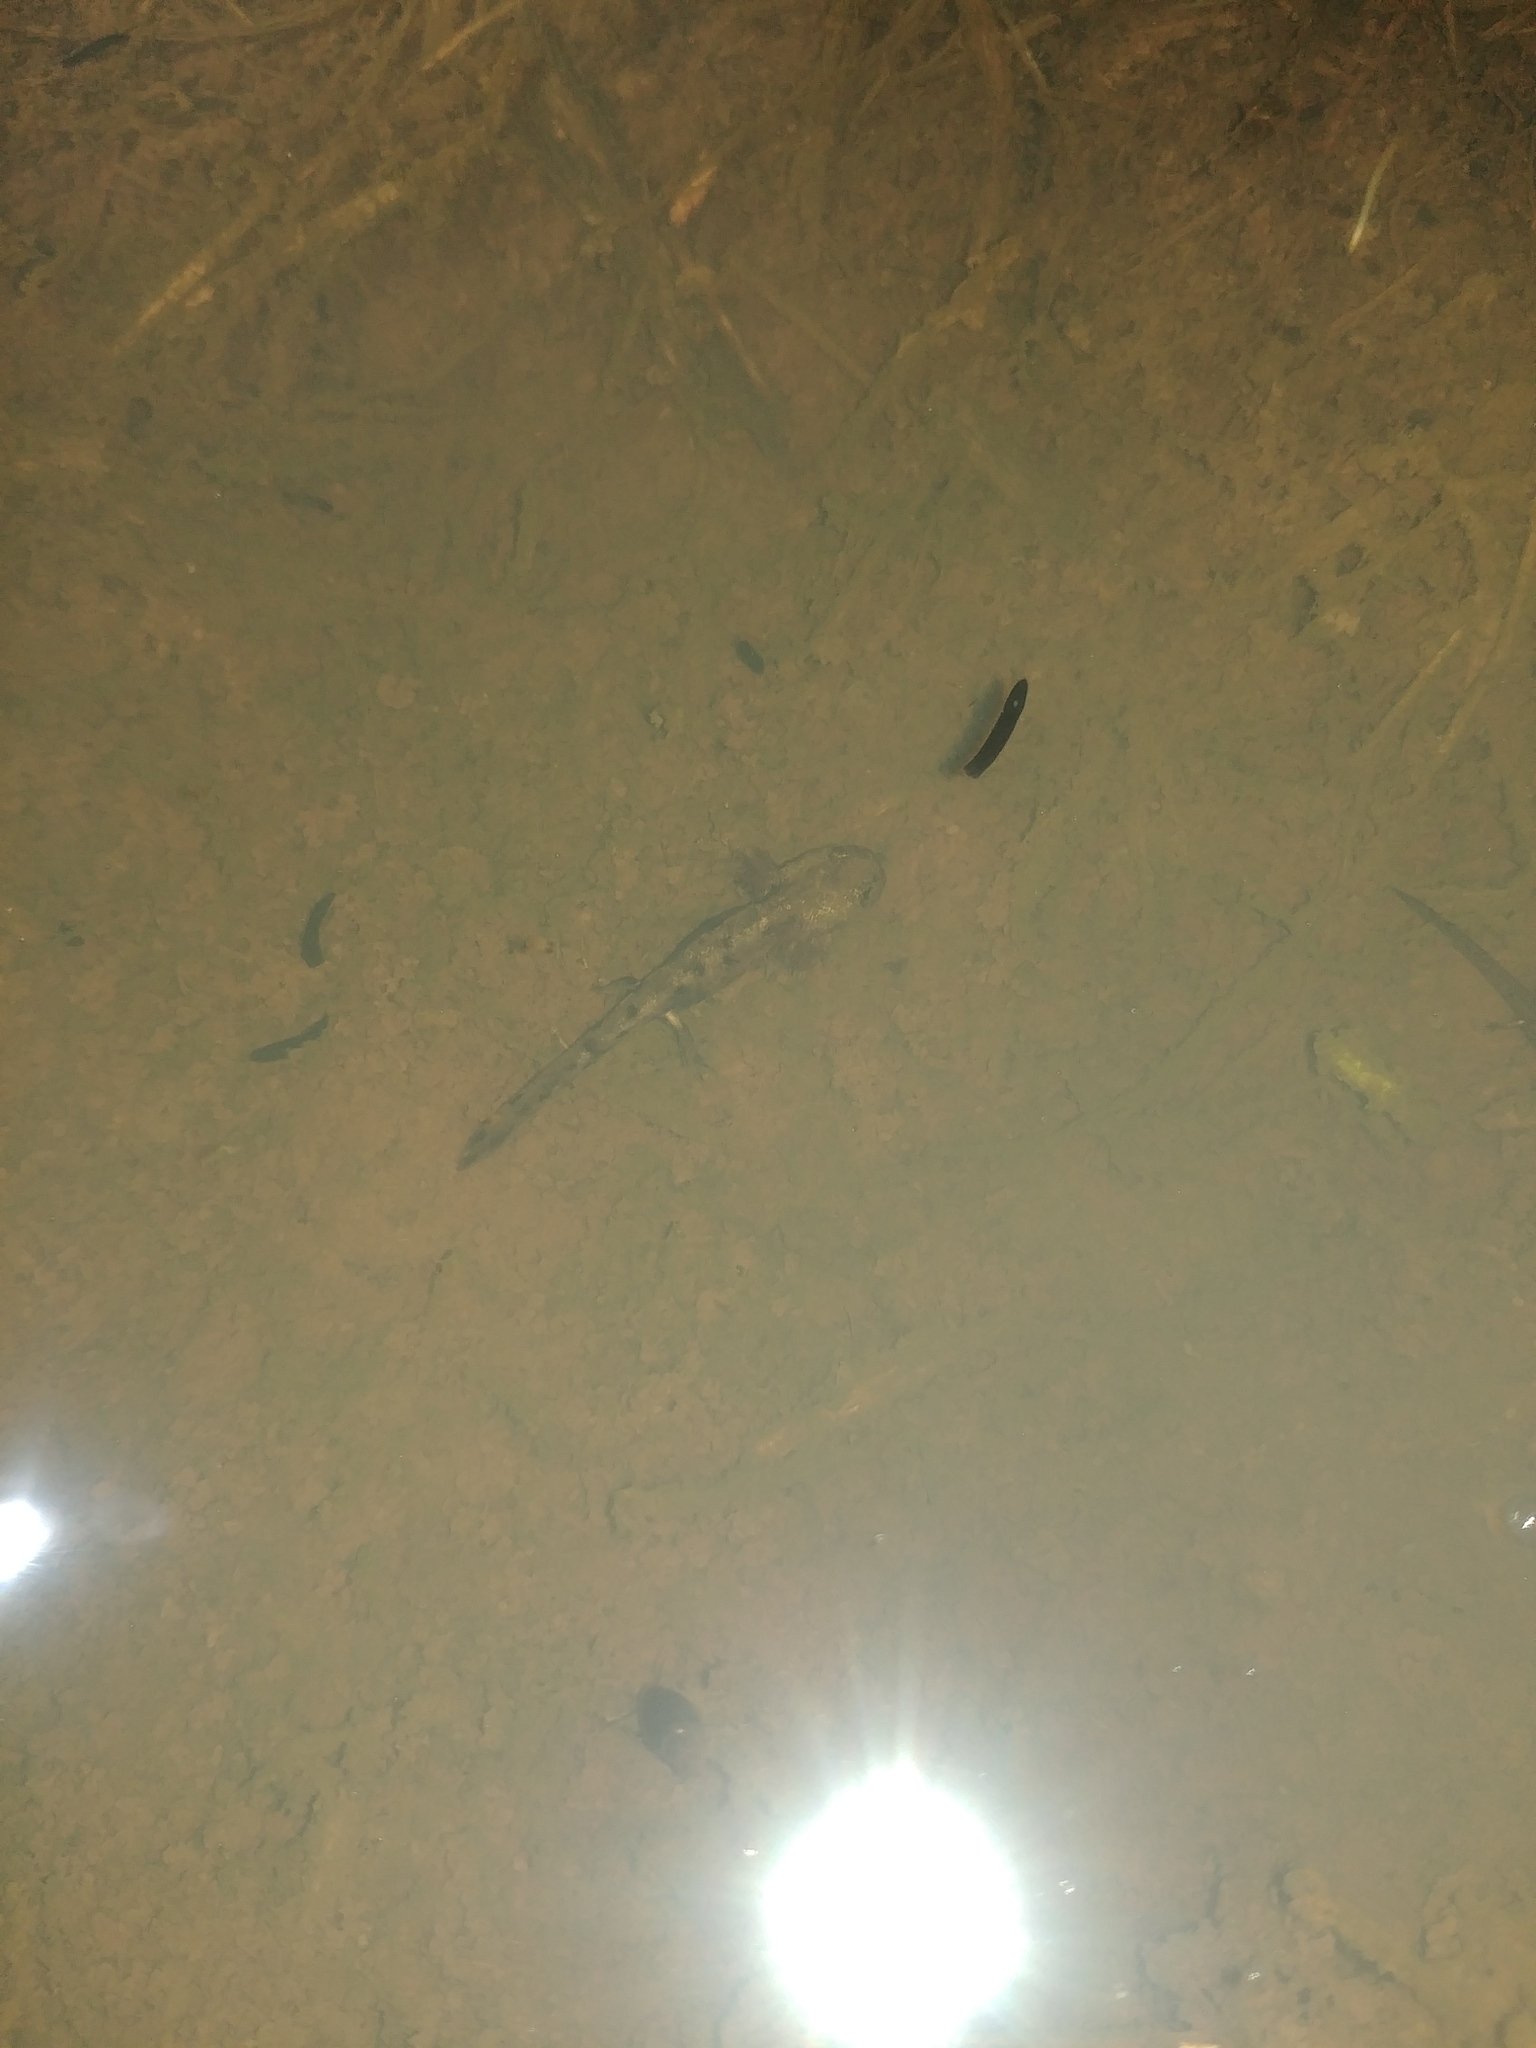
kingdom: Animalia
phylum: Chordata
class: Amphibia
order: Caudata
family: Salamandridae
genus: Salamandra
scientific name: Salamandra salamandra
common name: Fire salamander
